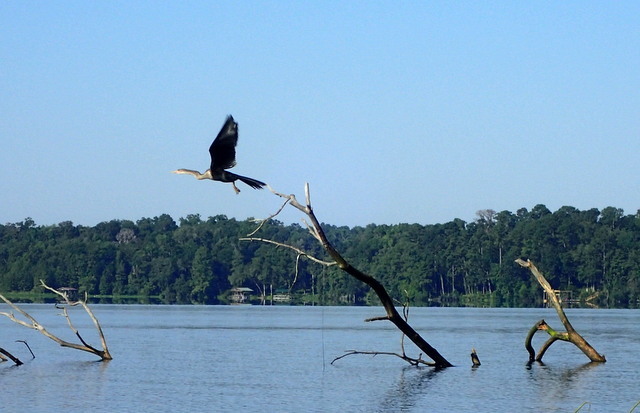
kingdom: Animalia
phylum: Chordata
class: Aves
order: Suliformes
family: Anhingidae
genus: Anhinga
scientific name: Anhinga anhinga
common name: Anhinga
